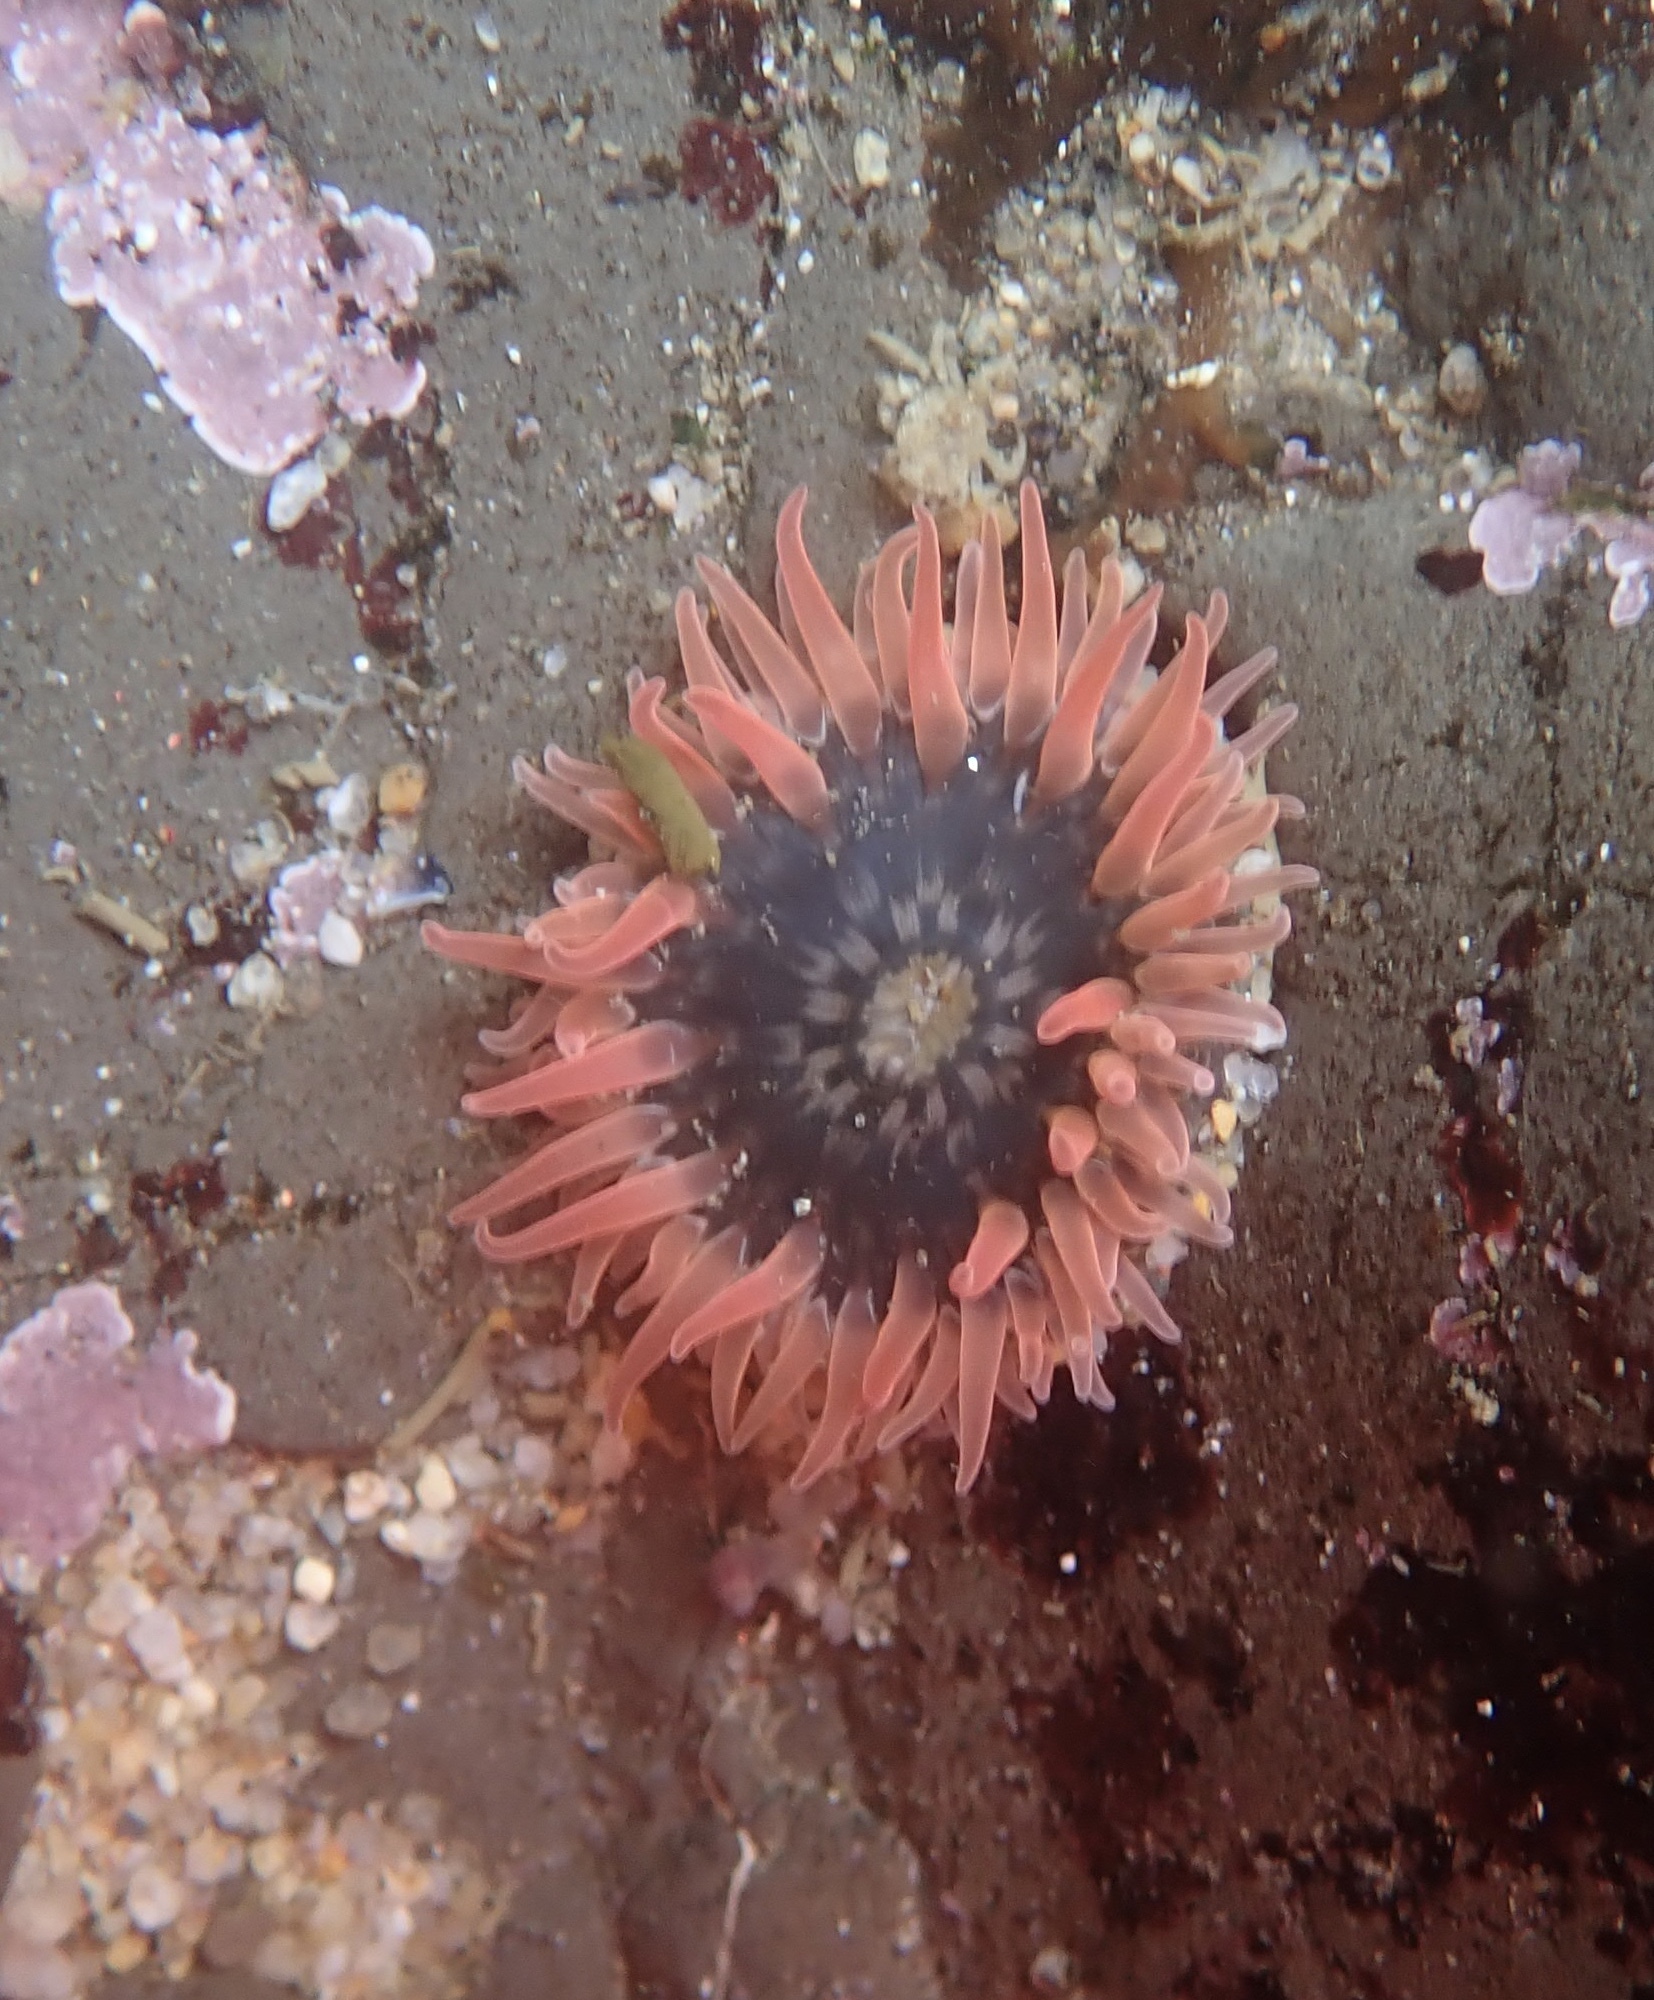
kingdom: Animalia
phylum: Cnidaria
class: Anthozoa
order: Actiniaria
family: Actiniidae
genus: Anthopleura
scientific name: Anthopleura artemisia
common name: Buried sea anemone
